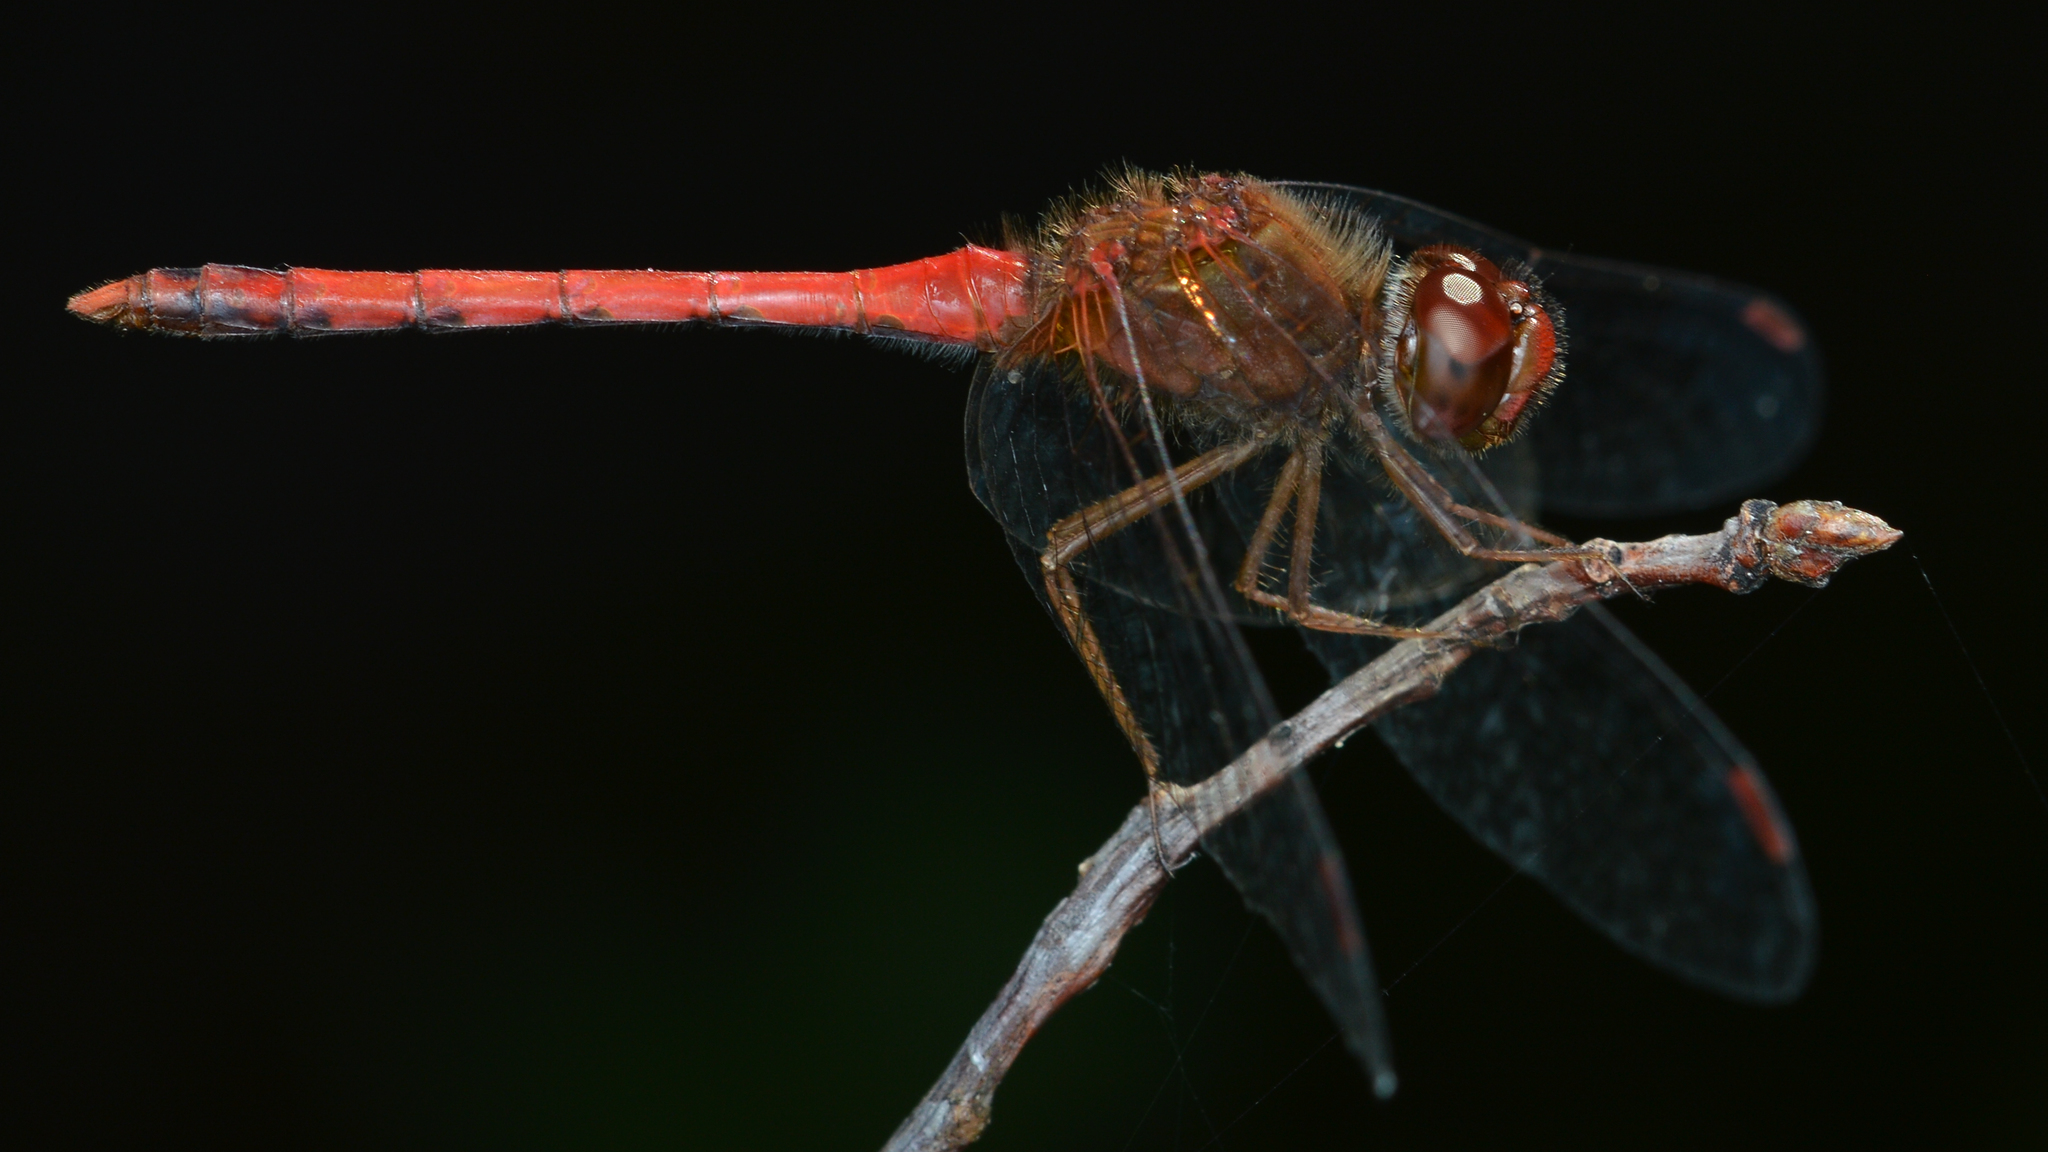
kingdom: Animalia
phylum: Arthropoda
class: Insecta
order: Odonata
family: Libellulidae
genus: Sympetrum
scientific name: Sympetrum vicinum
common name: Autumn meadowhawk
